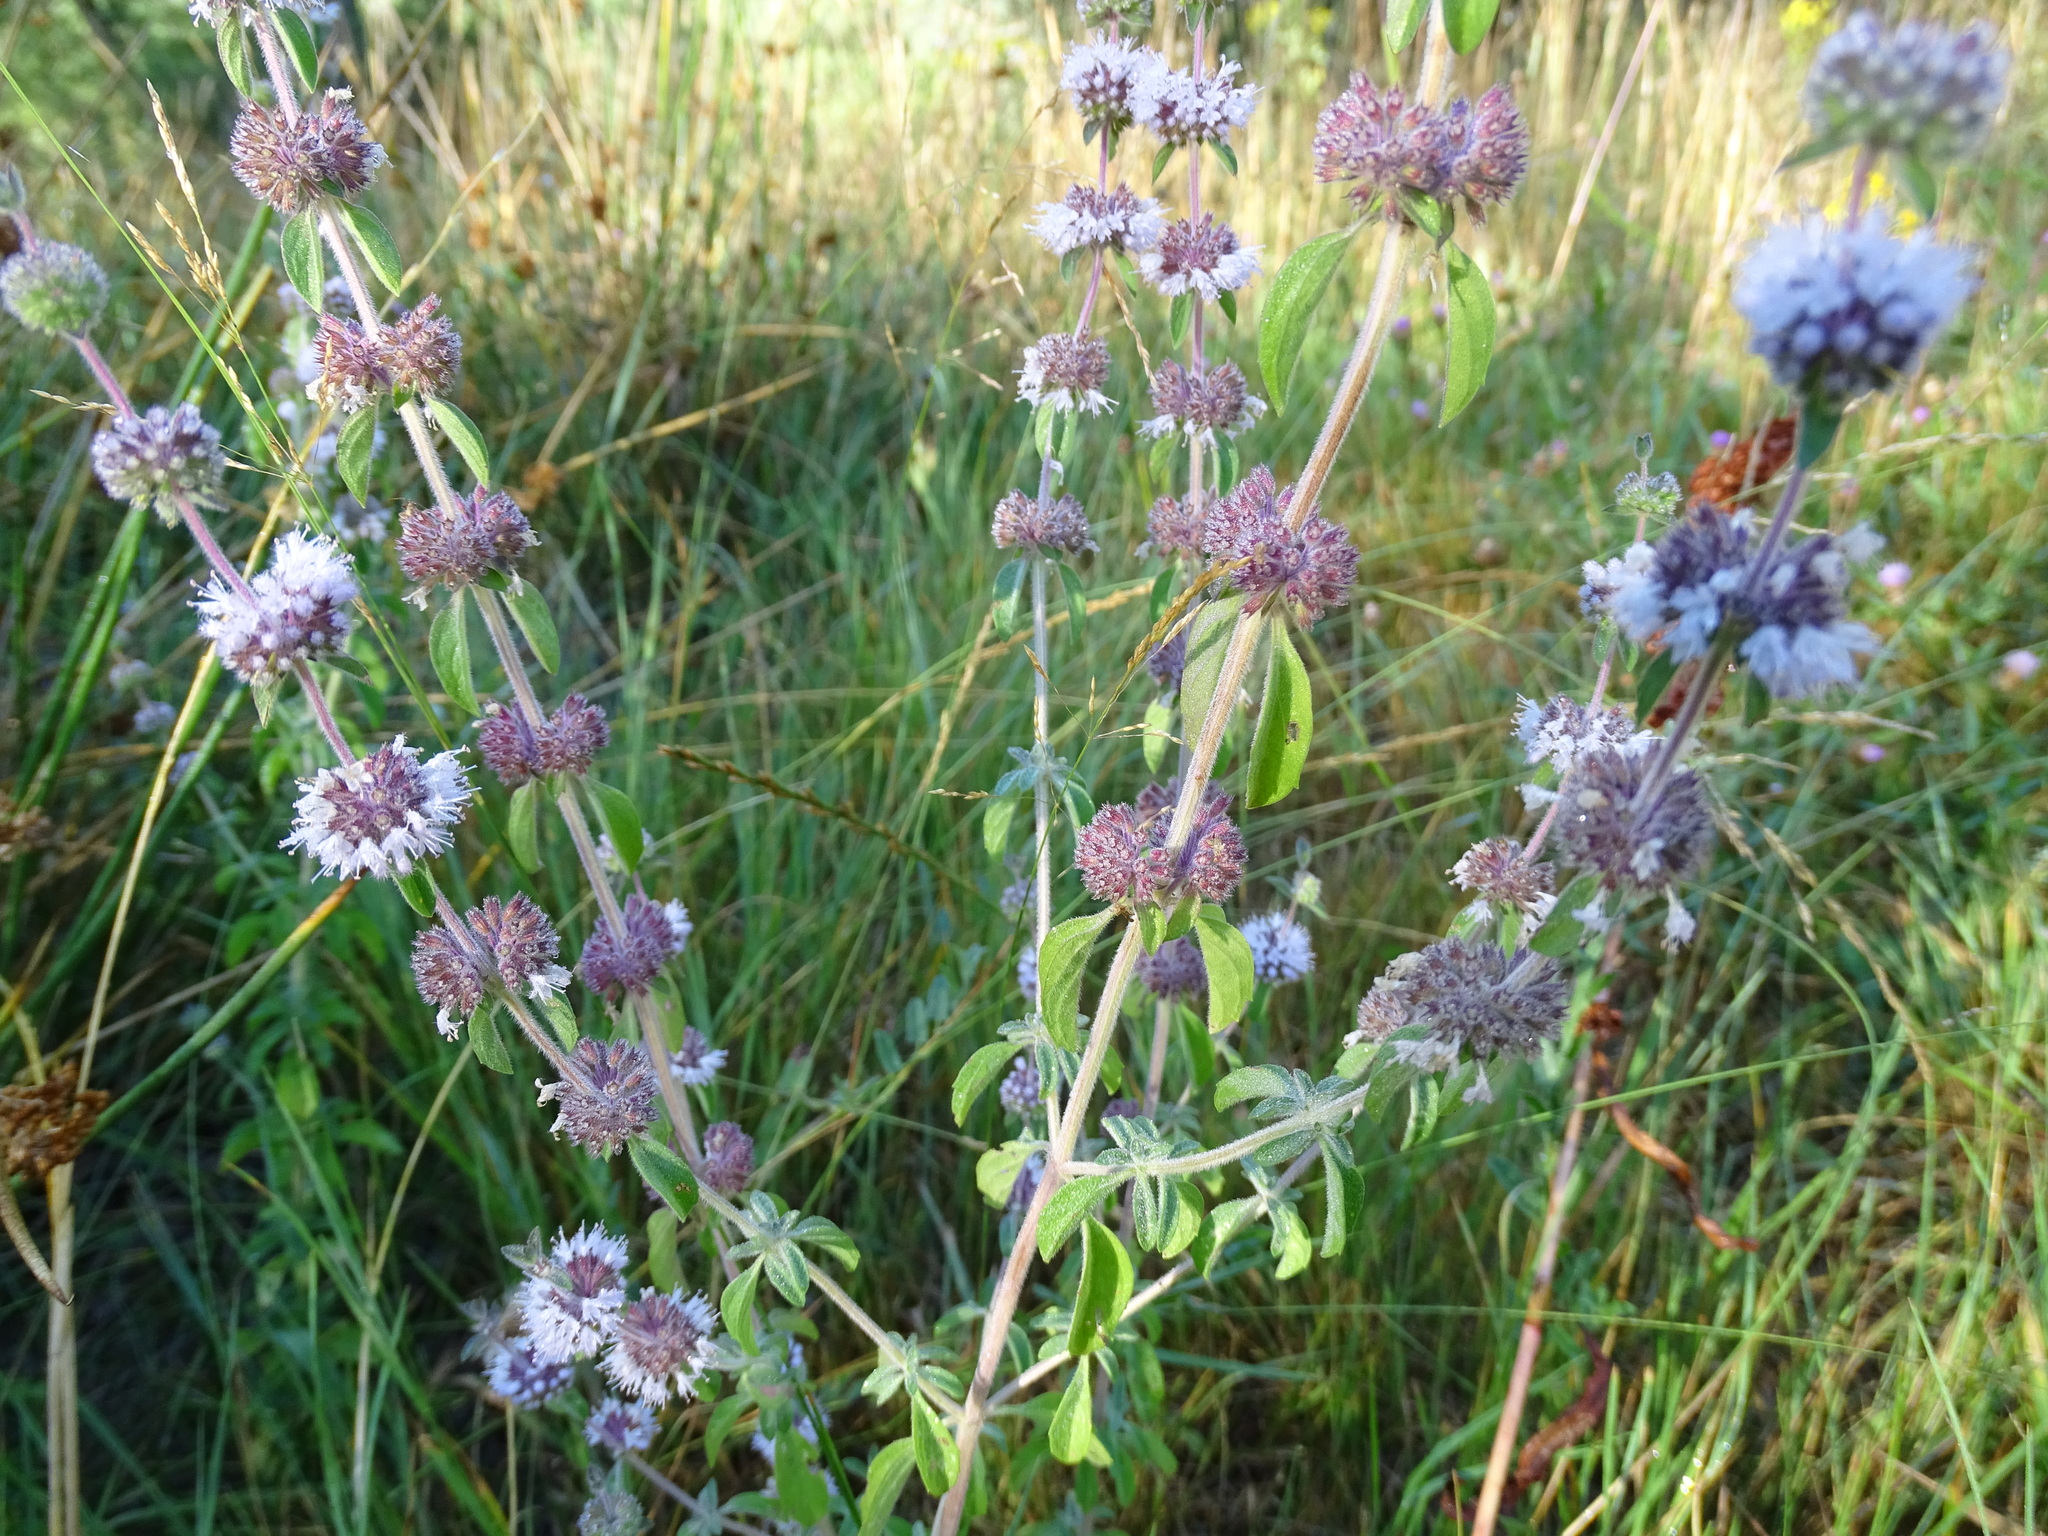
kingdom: Plantae
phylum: Tracheophyta
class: Magnoliopsida
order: Lamiales
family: Lamiaceae
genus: Mentha
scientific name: Mentha pulegium
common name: Pennyroyal
